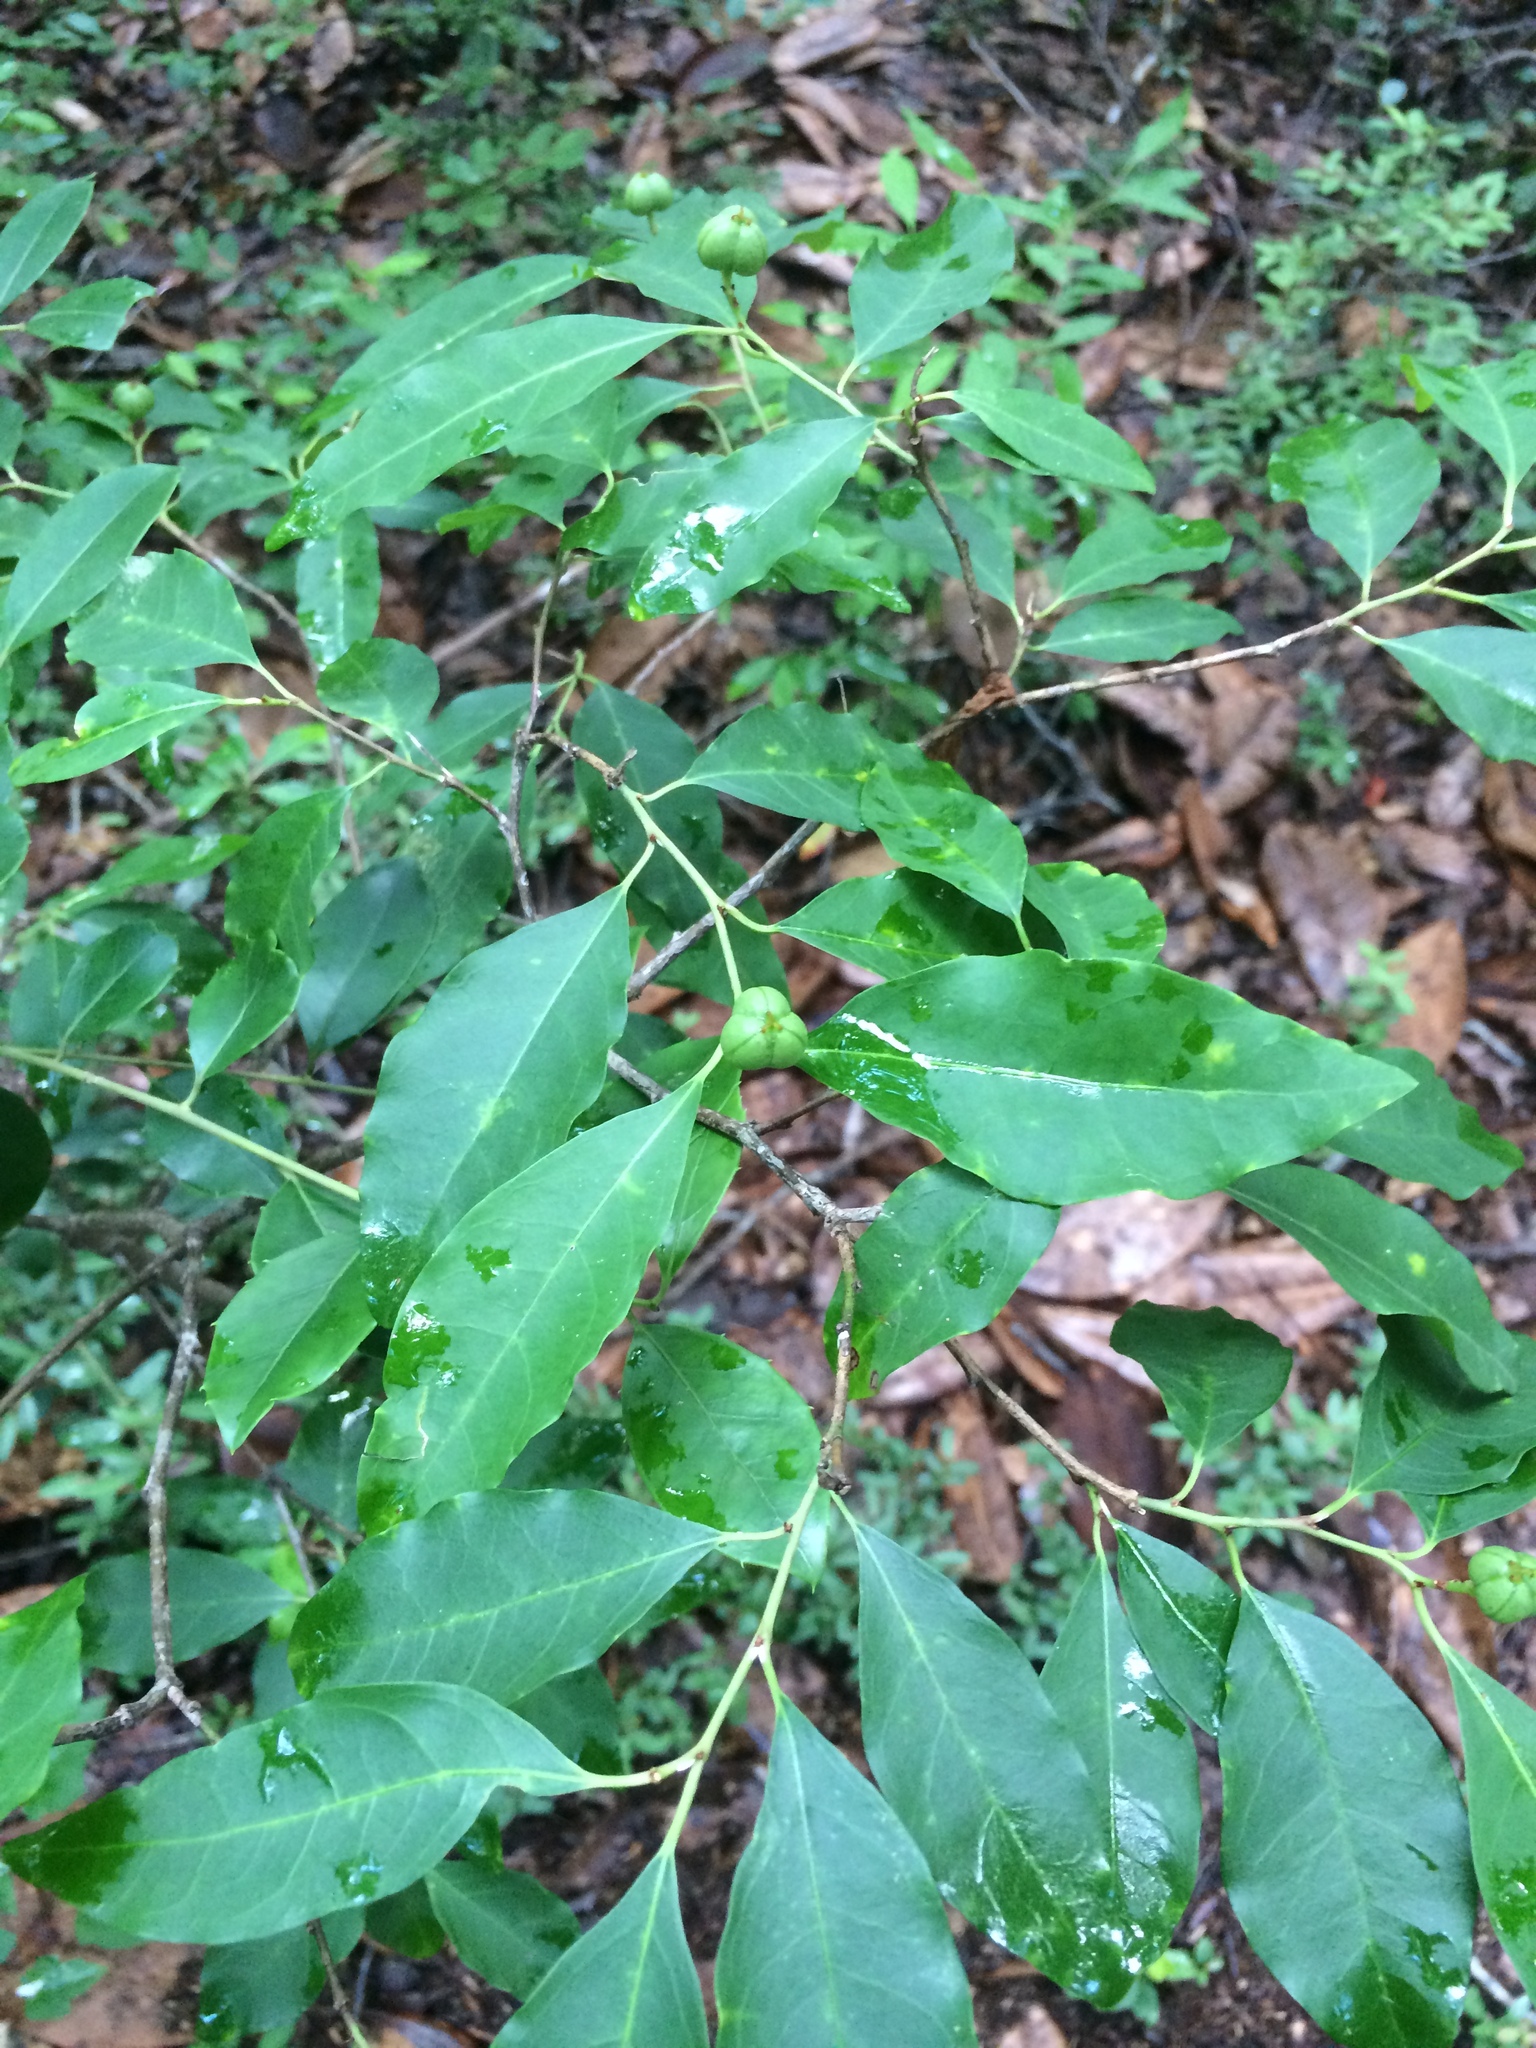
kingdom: Plantae
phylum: Tracheophyta
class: Magnoliopsida
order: Malpighiales
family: Euphorbiaceae
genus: Ditrysinia
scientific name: Ditrysinia fruticosa
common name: Gulf sebastian-bush
